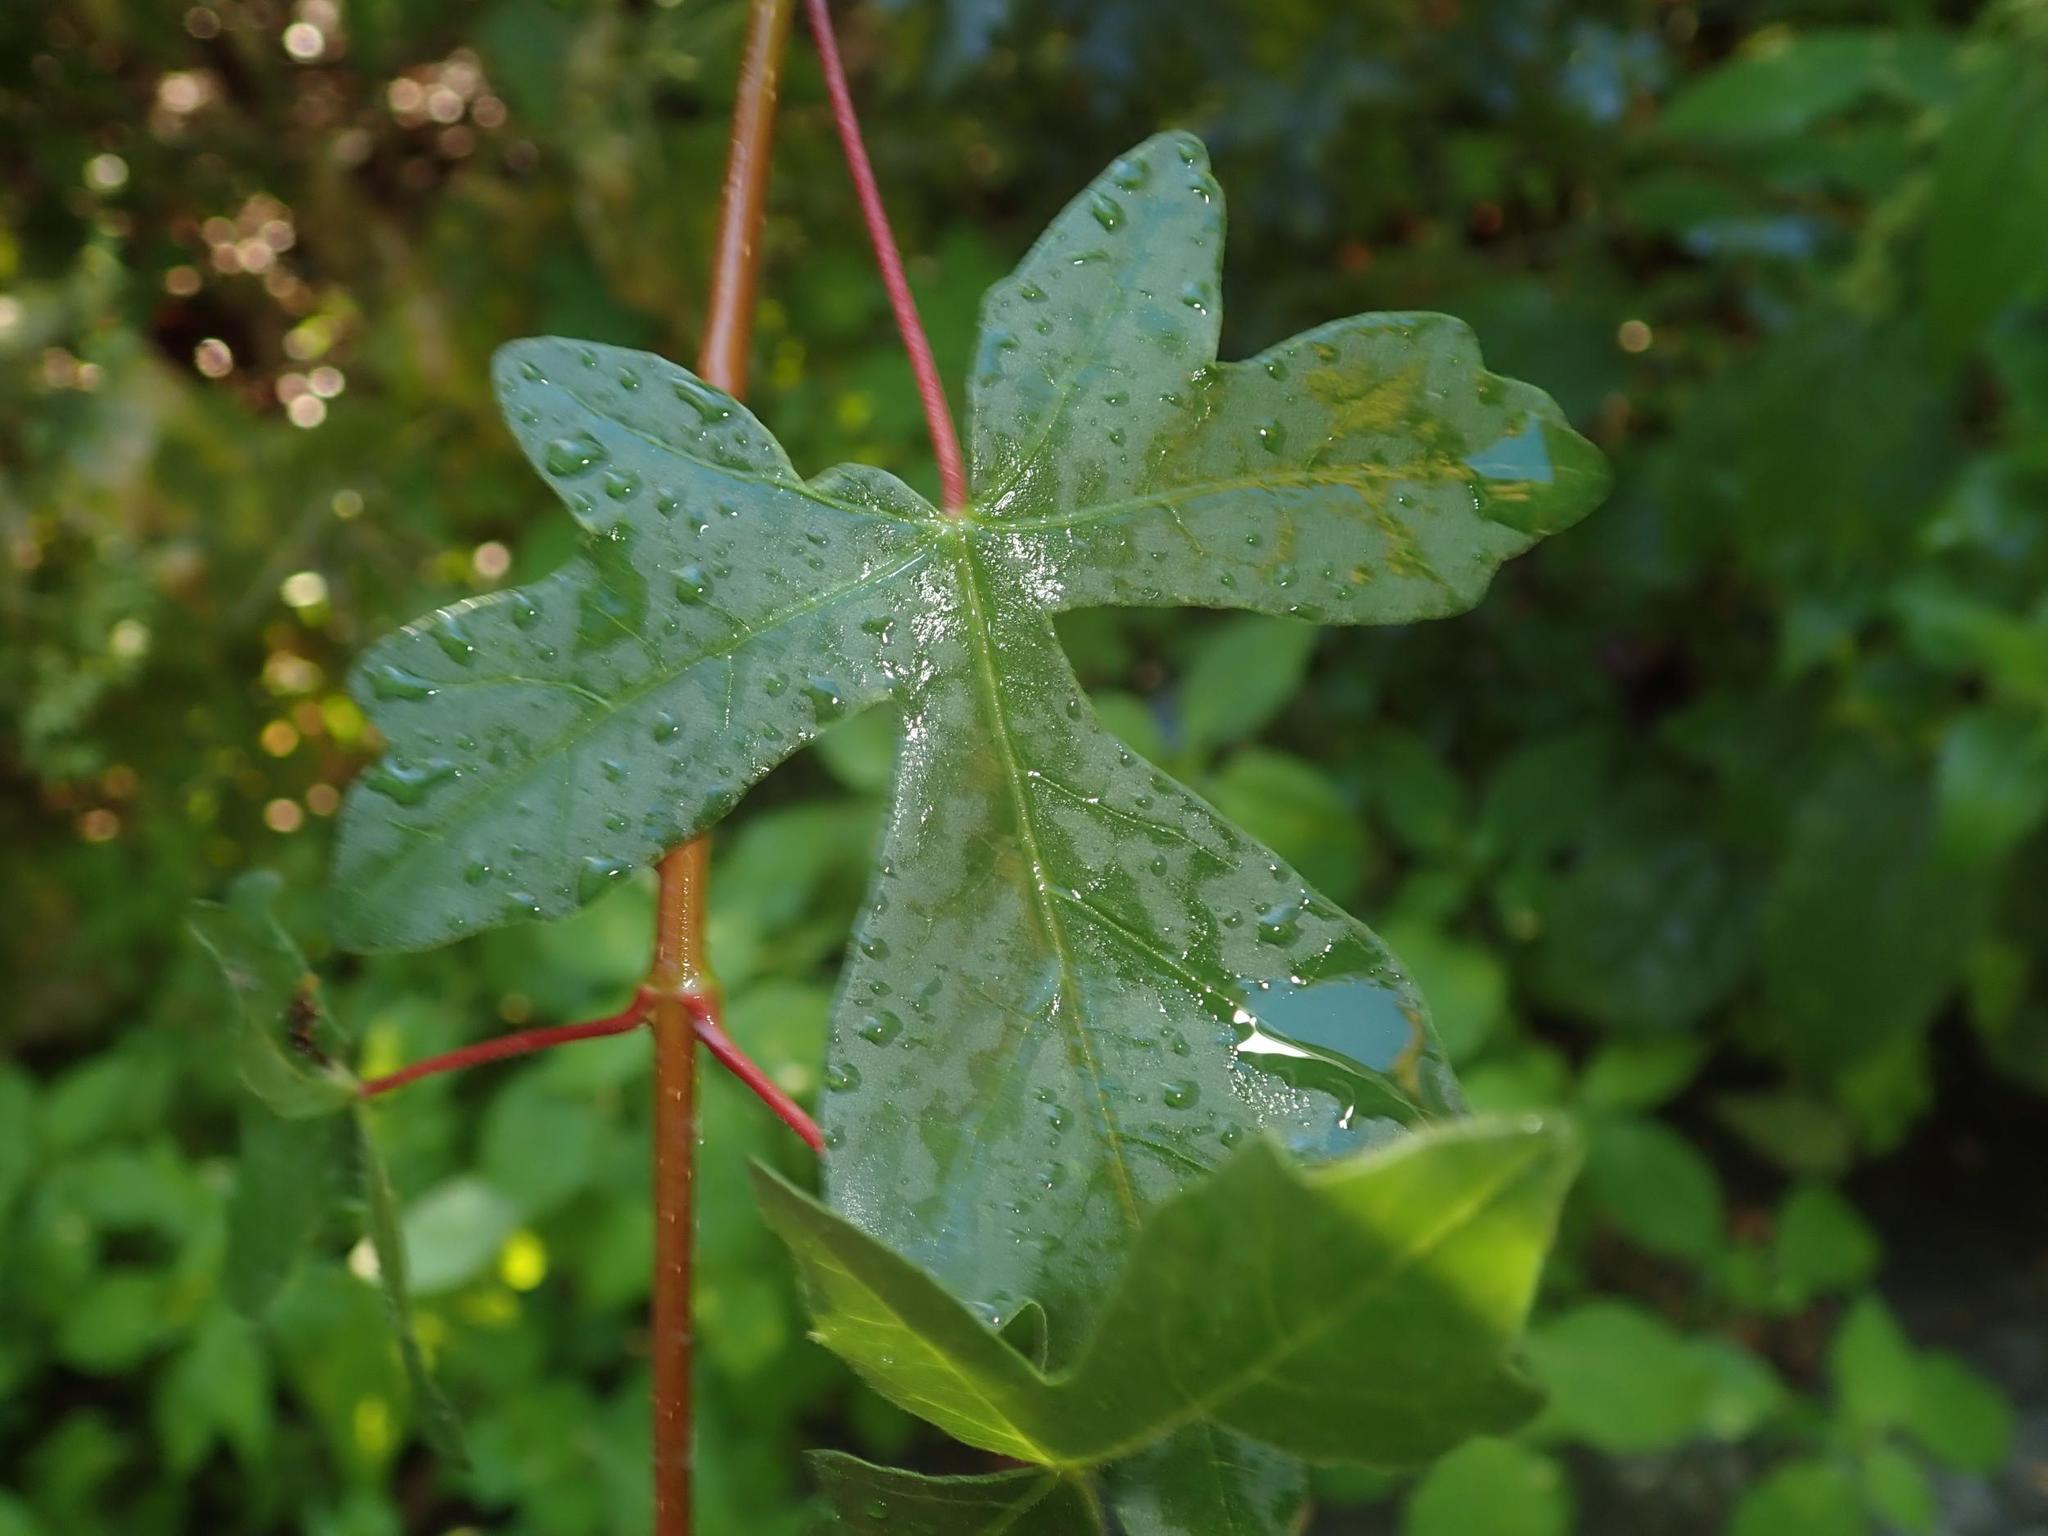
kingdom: Plantae
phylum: Tracheophyta
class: Magnoliopsida
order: Sapindales
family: Sapindaceae
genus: Acer
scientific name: Acer campestre
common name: Field maple
